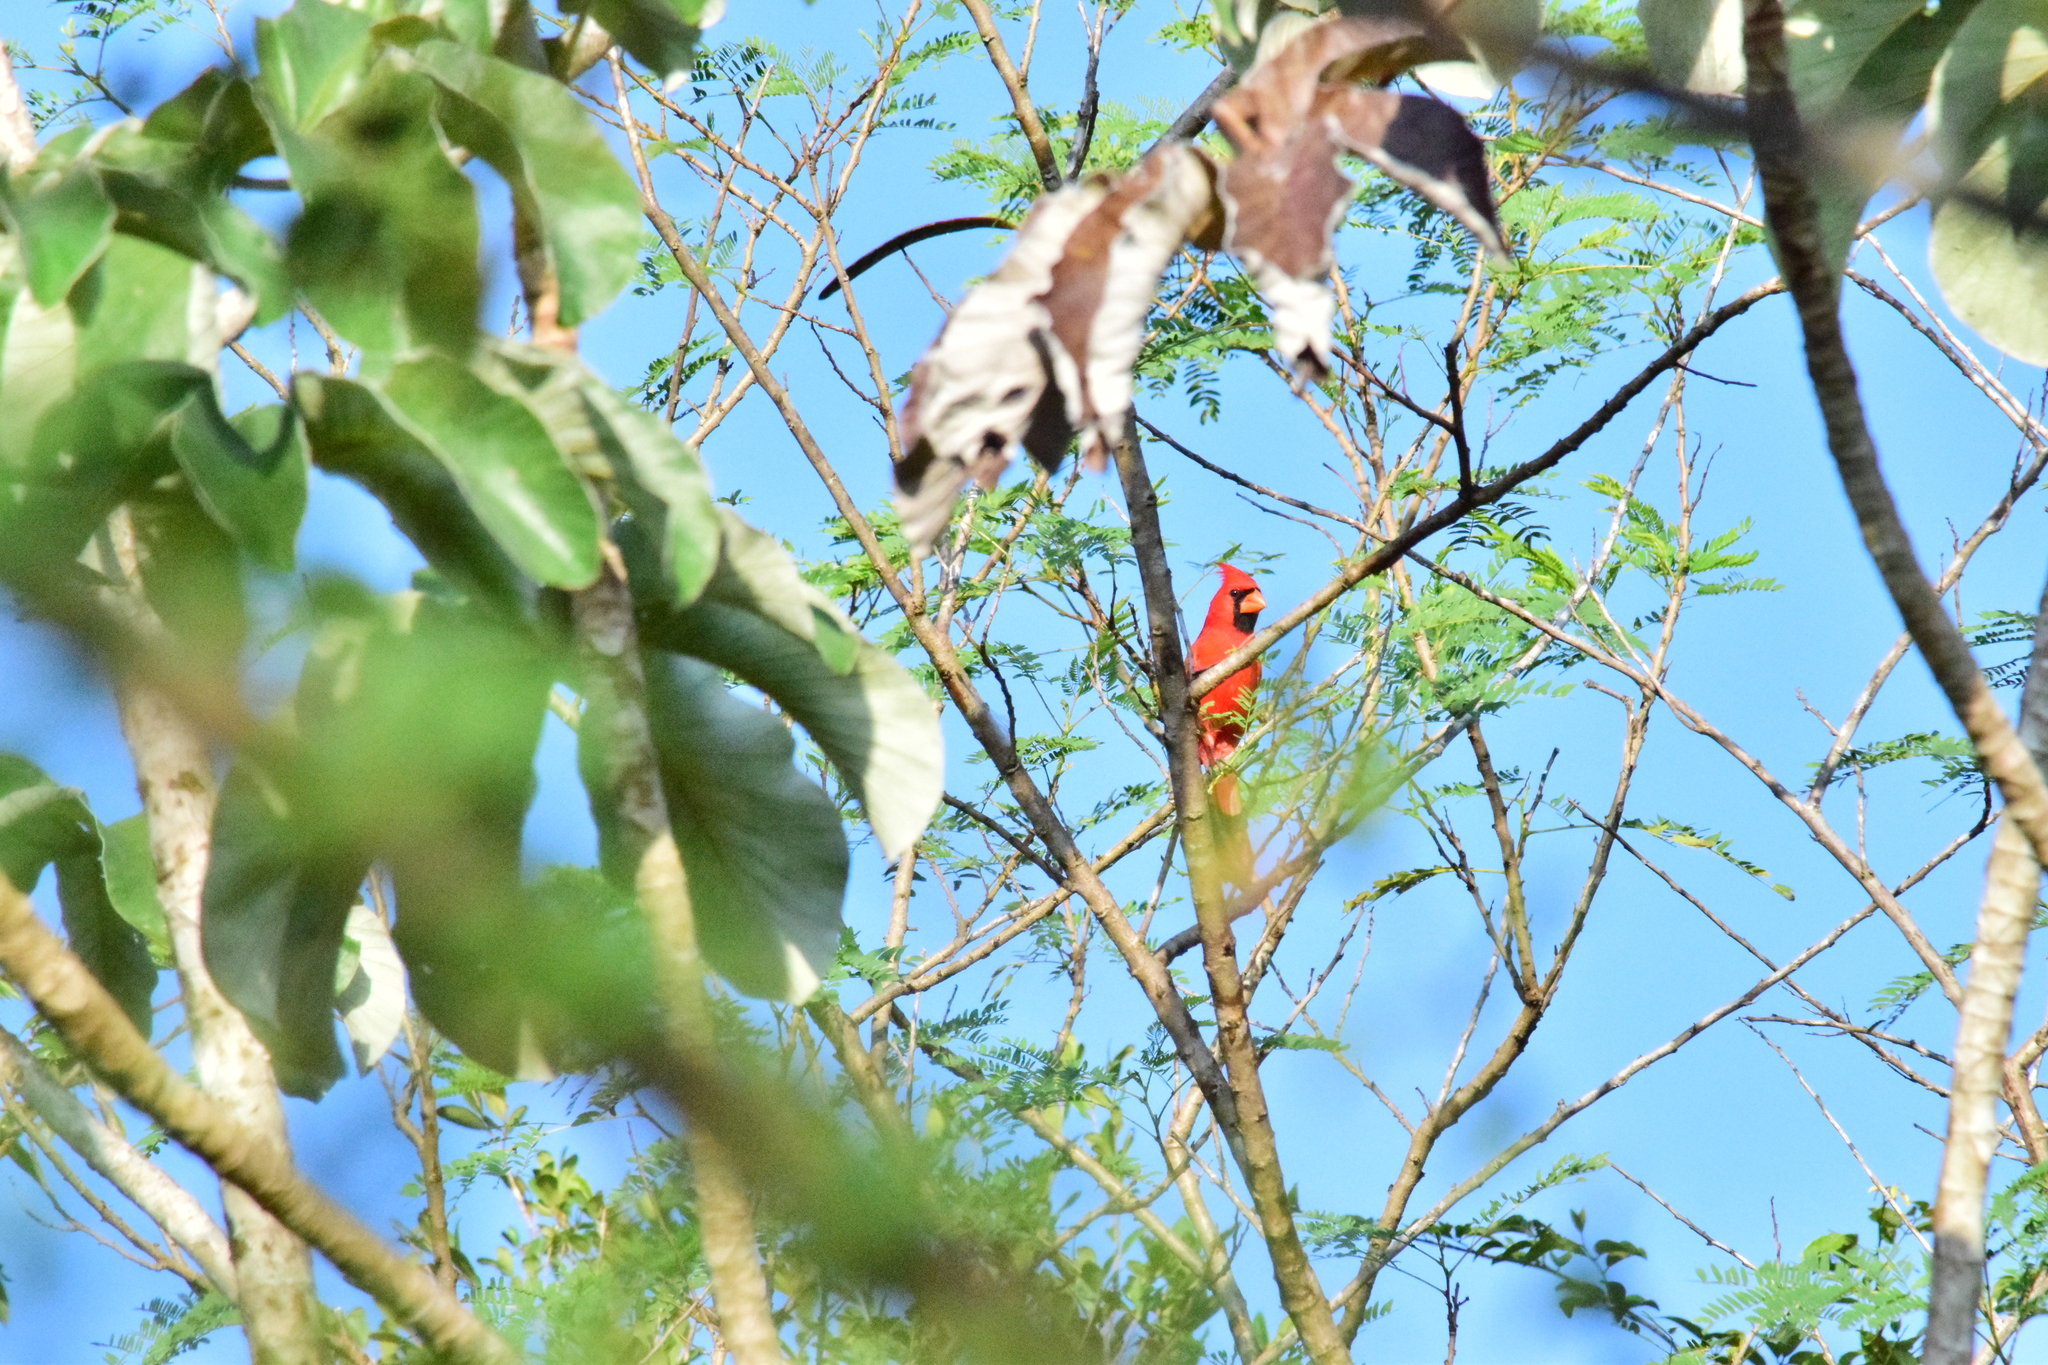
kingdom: Animalia
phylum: Chordata
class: Aves
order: Passeriformes
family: Cardinalidae
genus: Cardinalis
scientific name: Cardinalis cardinalis
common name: Northern cardinal
